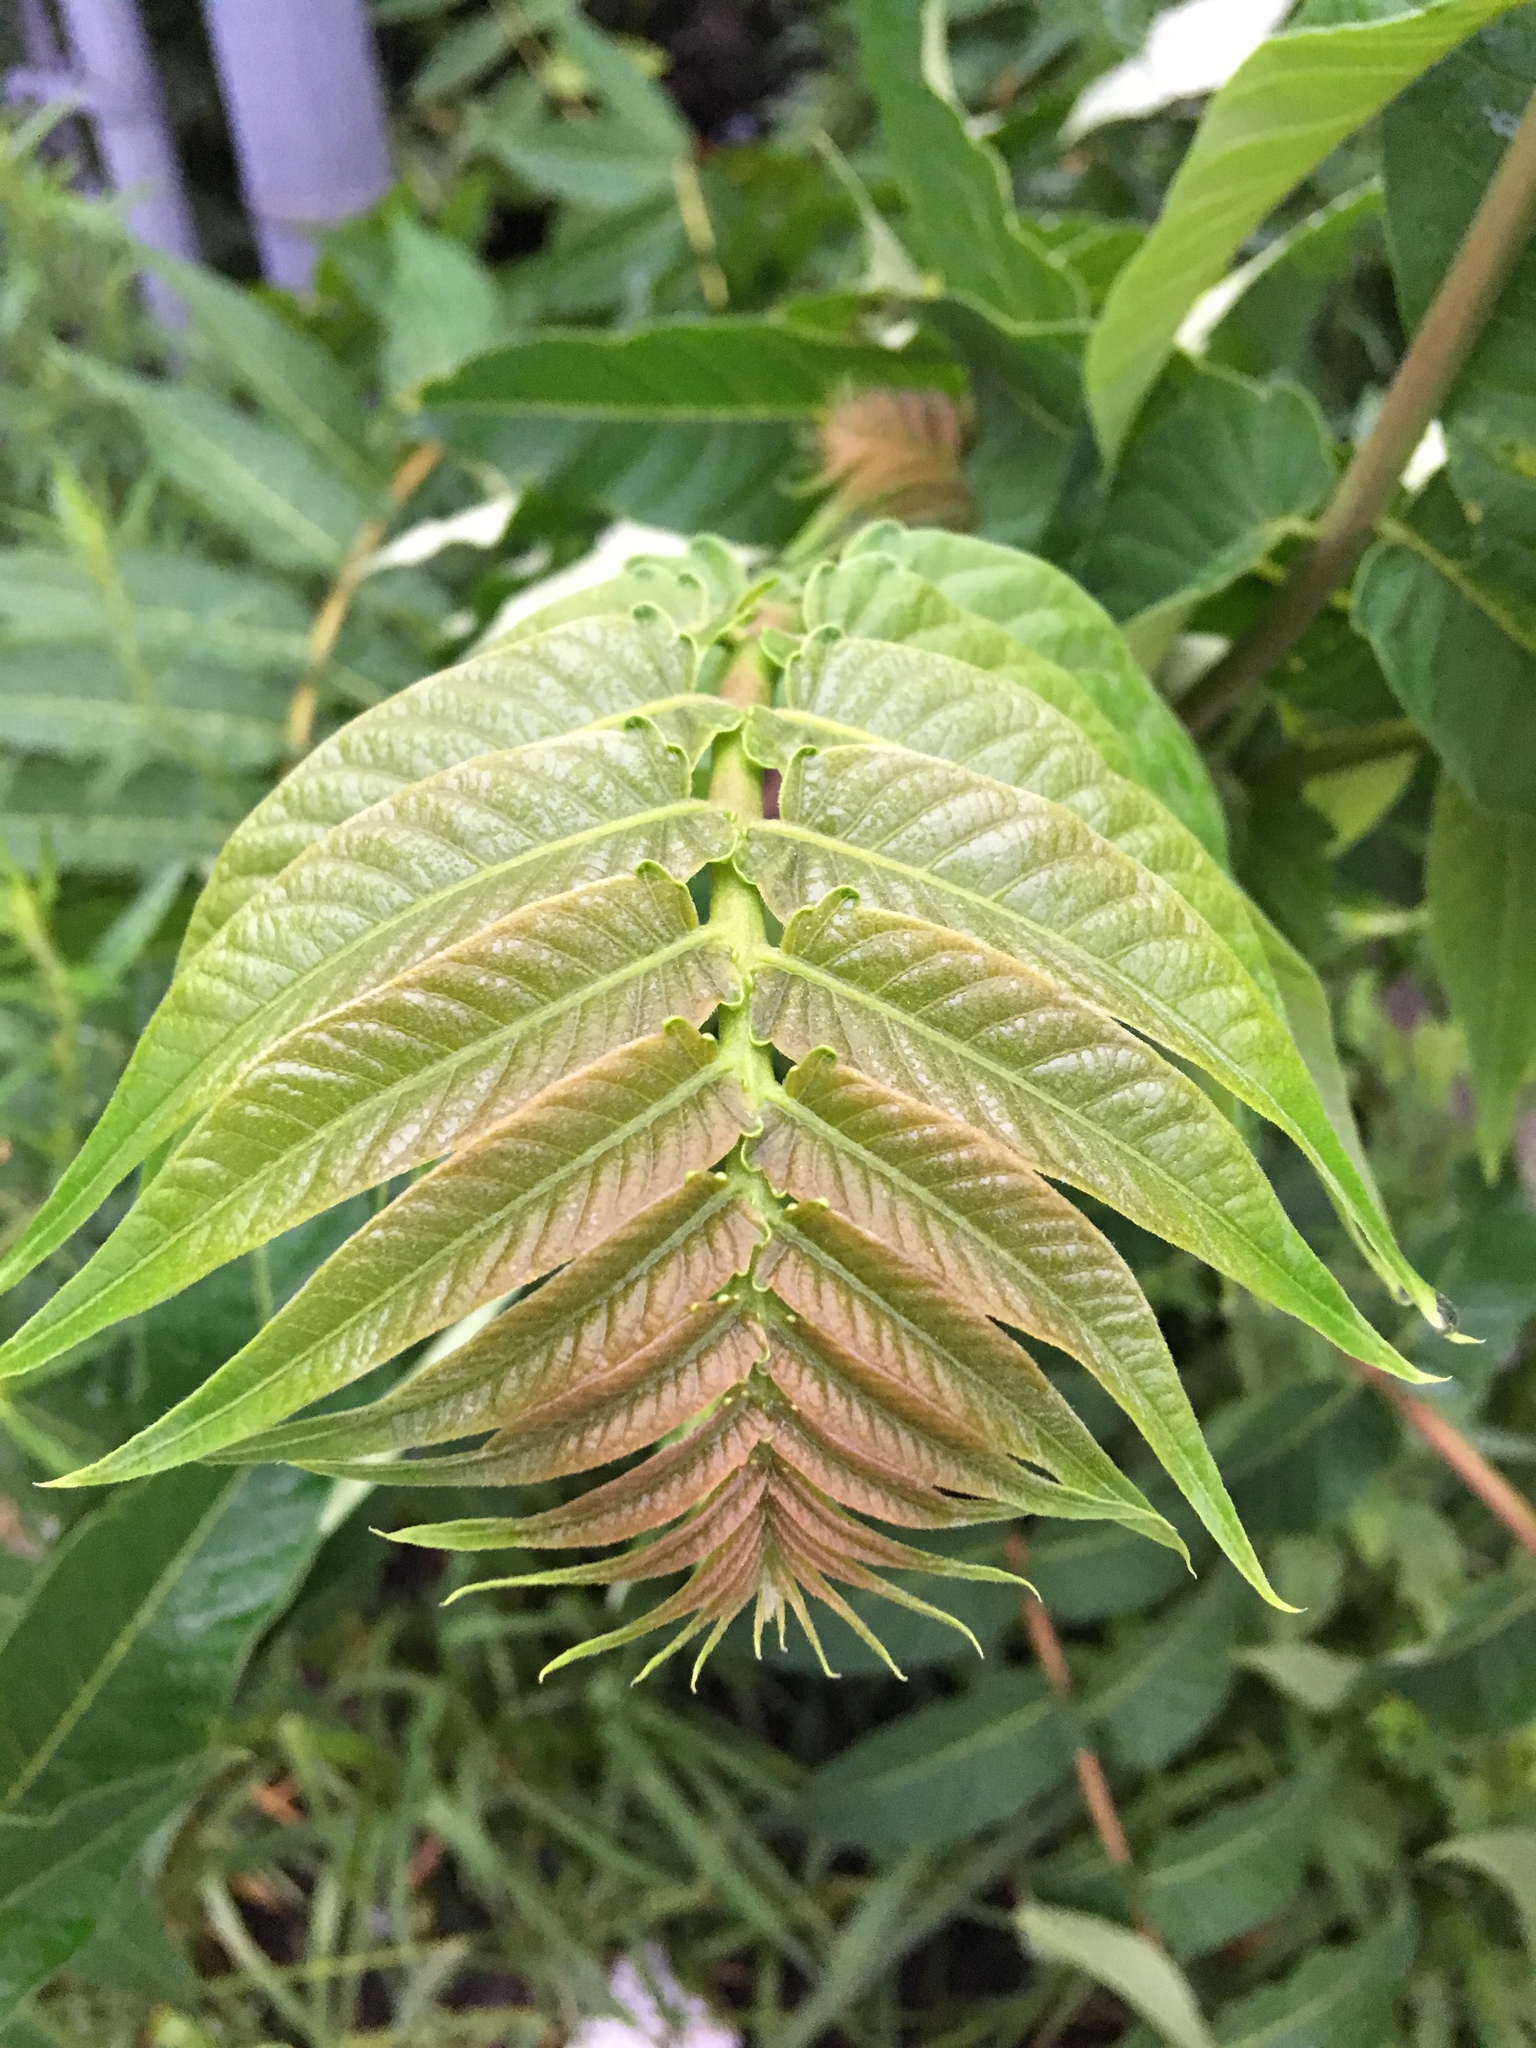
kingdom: Plantae
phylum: Tracheophyta
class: Magnoliopsida
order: Sapindales
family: Simaroubaceae
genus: Ailanthus
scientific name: Ailanthus altissima
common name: Tree-of-heaven
